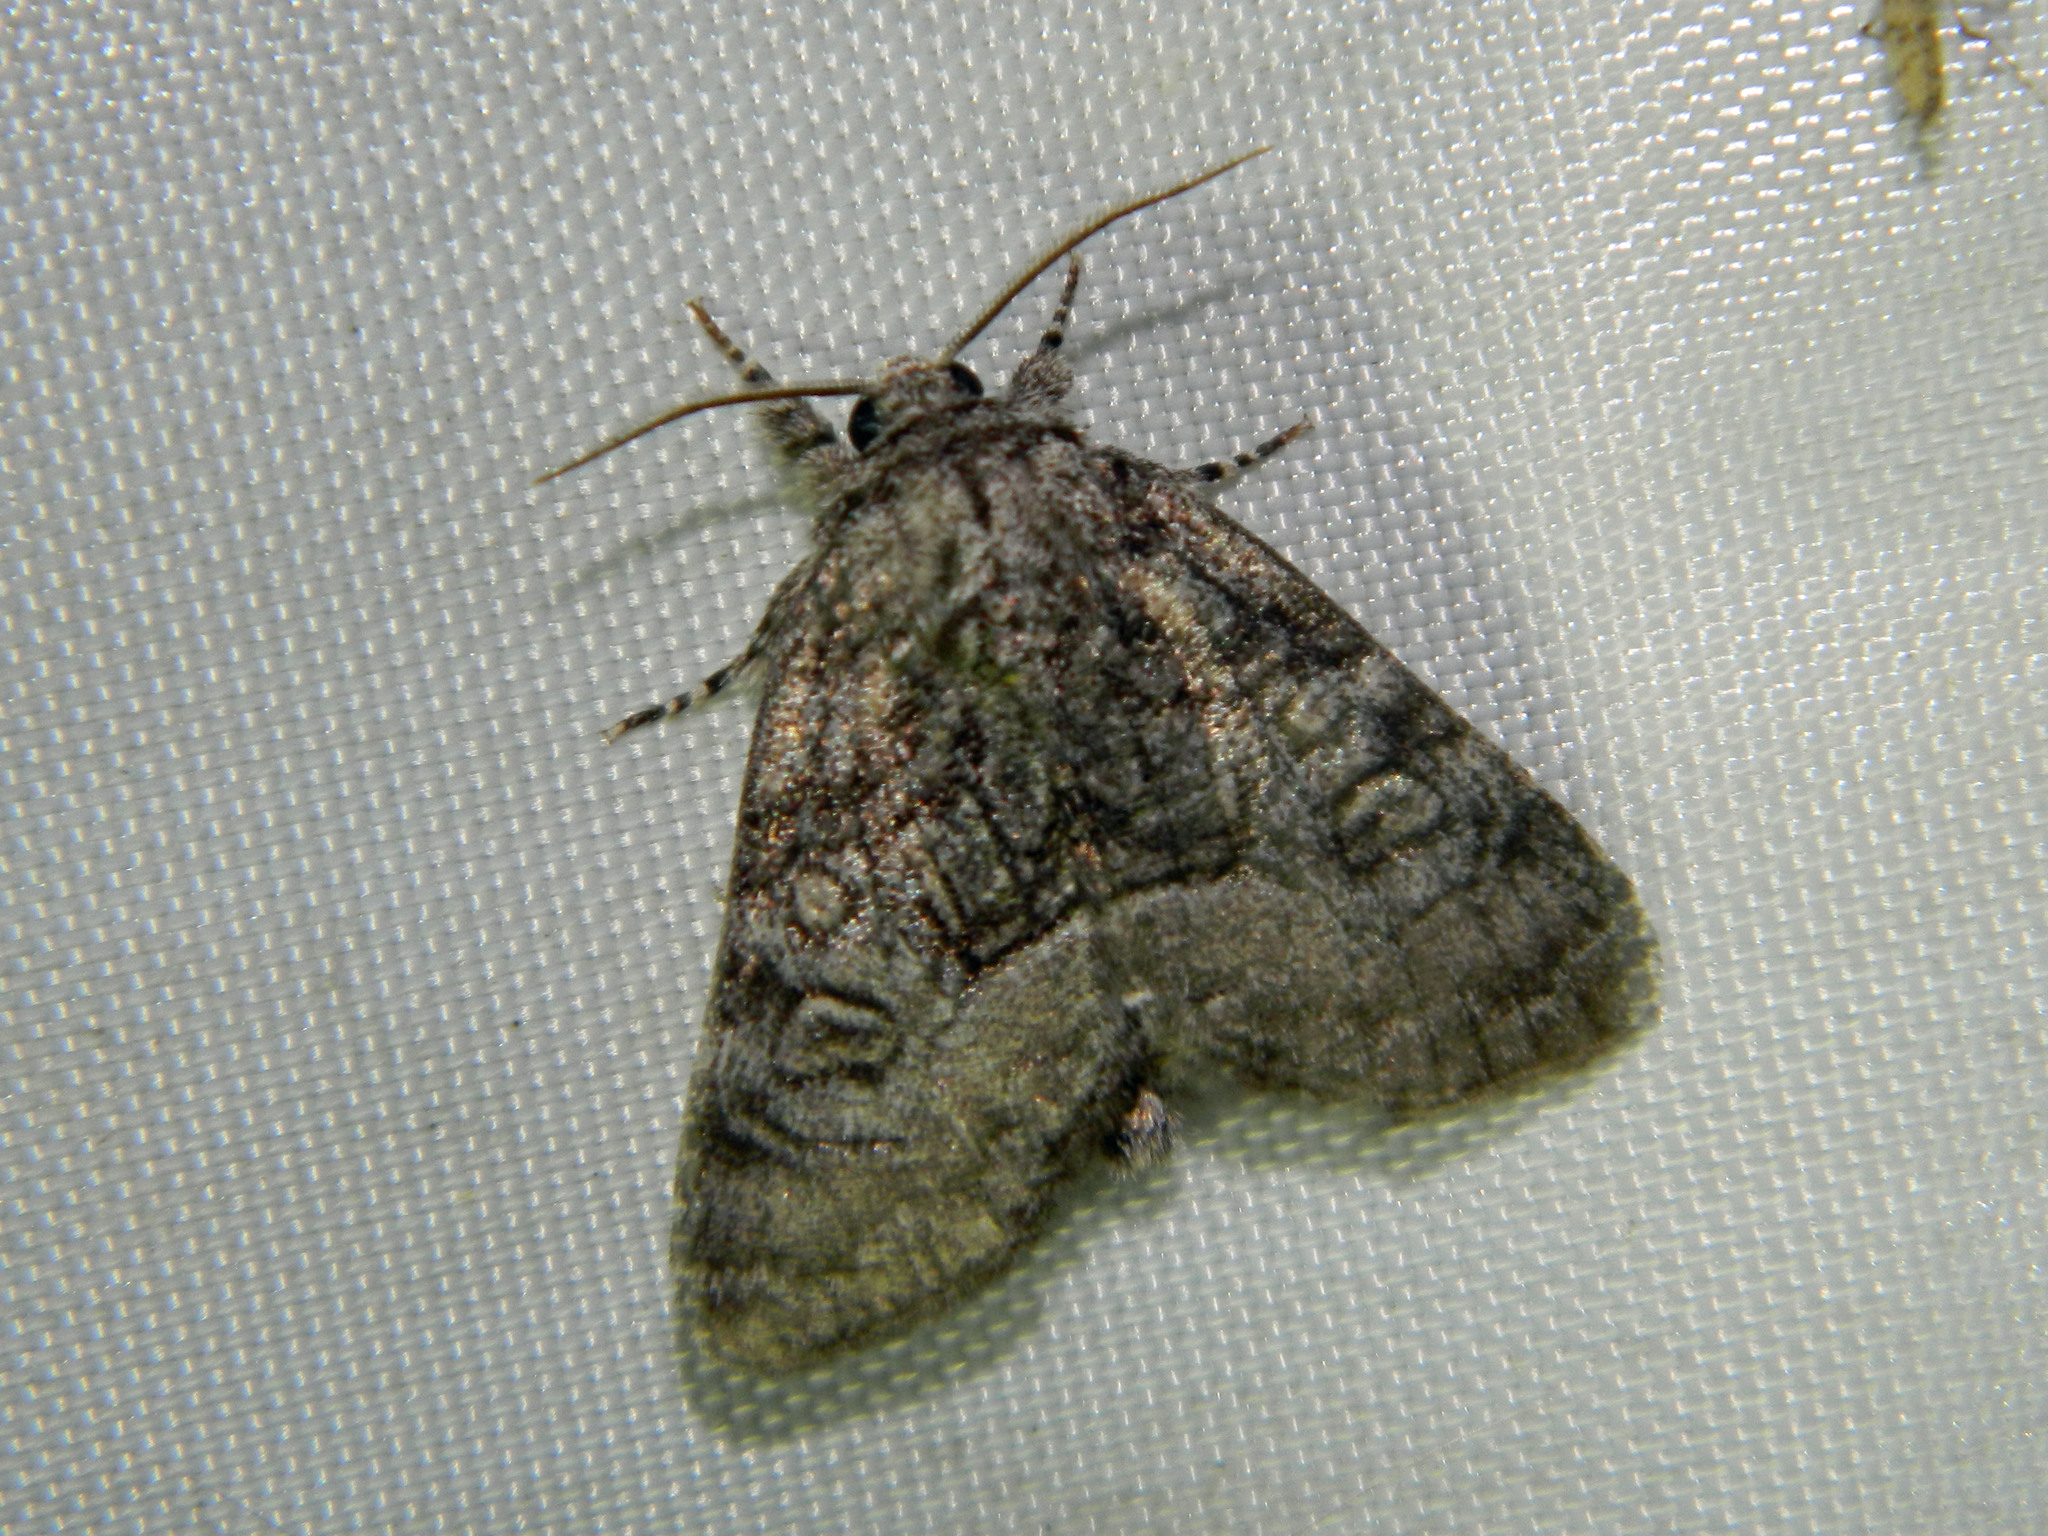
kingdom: Animalia
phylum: Arthropoda
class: Insecta
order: Lepidoptera
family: Noctuidae
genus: Raphia
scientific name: Raphia frater
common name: Brother
